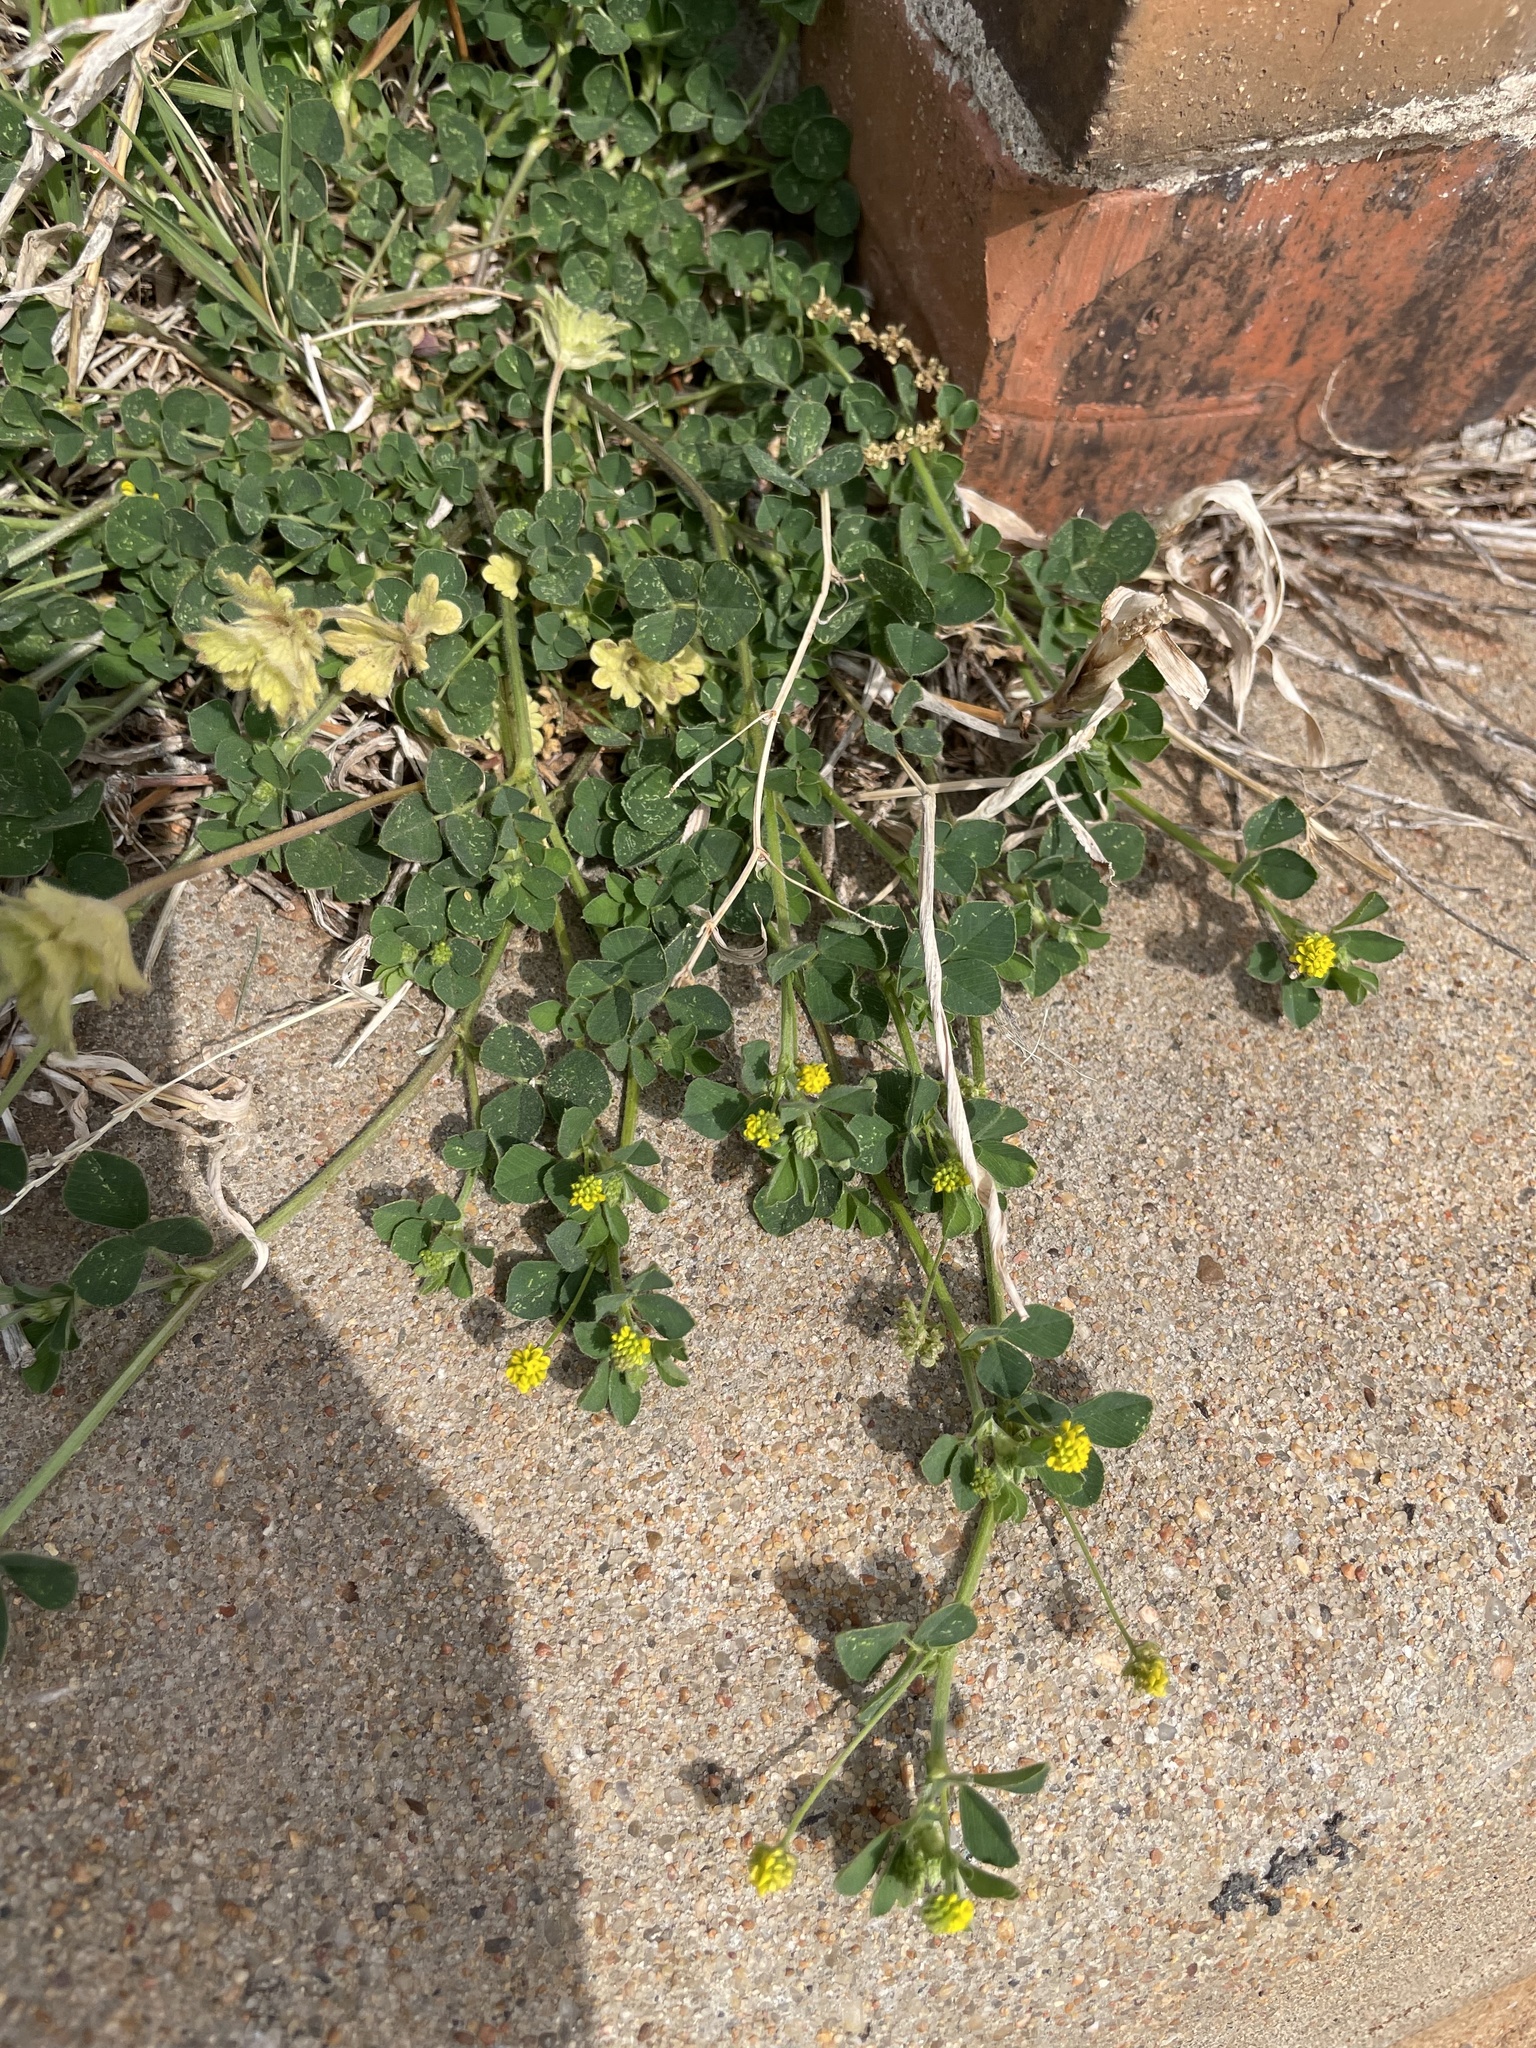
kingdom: Plantae
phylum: Tracheophyta
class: Magnoliopsida
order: Fabales
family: Fabaceae
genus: Medicago
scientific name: Medicago lupulina
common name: Black medick
